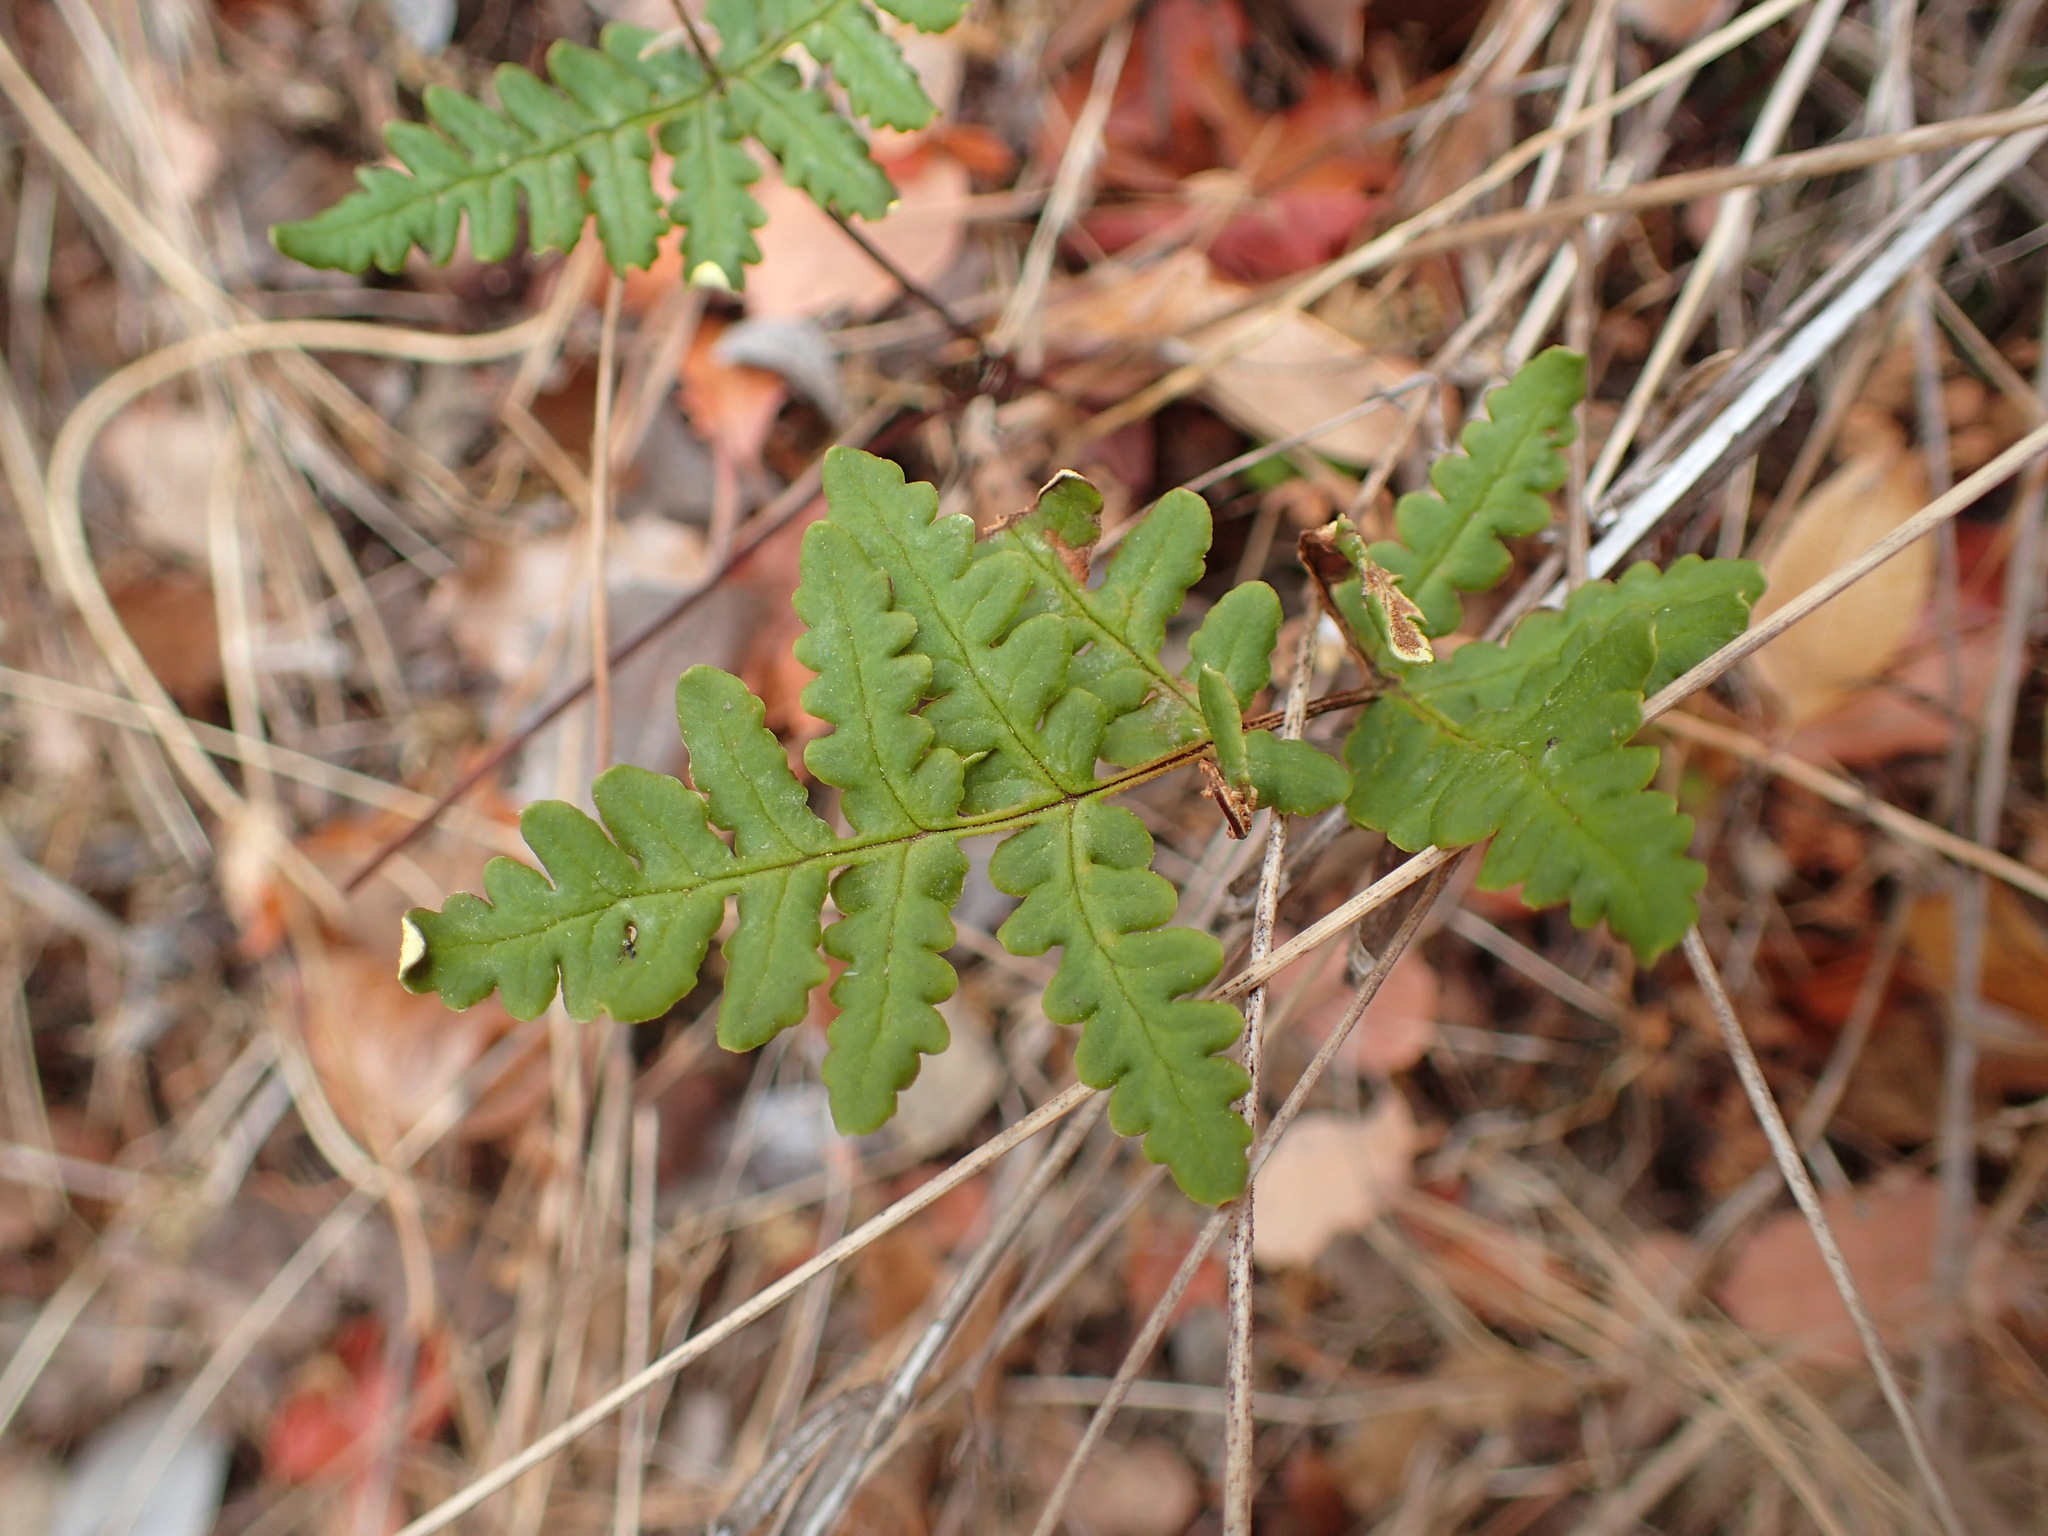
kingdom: Plantae
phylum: Tracheophyta
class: Polypodiopsida
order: Polypodiales
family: Pteridaceae
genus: Pentagramma
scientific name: Pentagramma triangularis
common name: Gold fern
